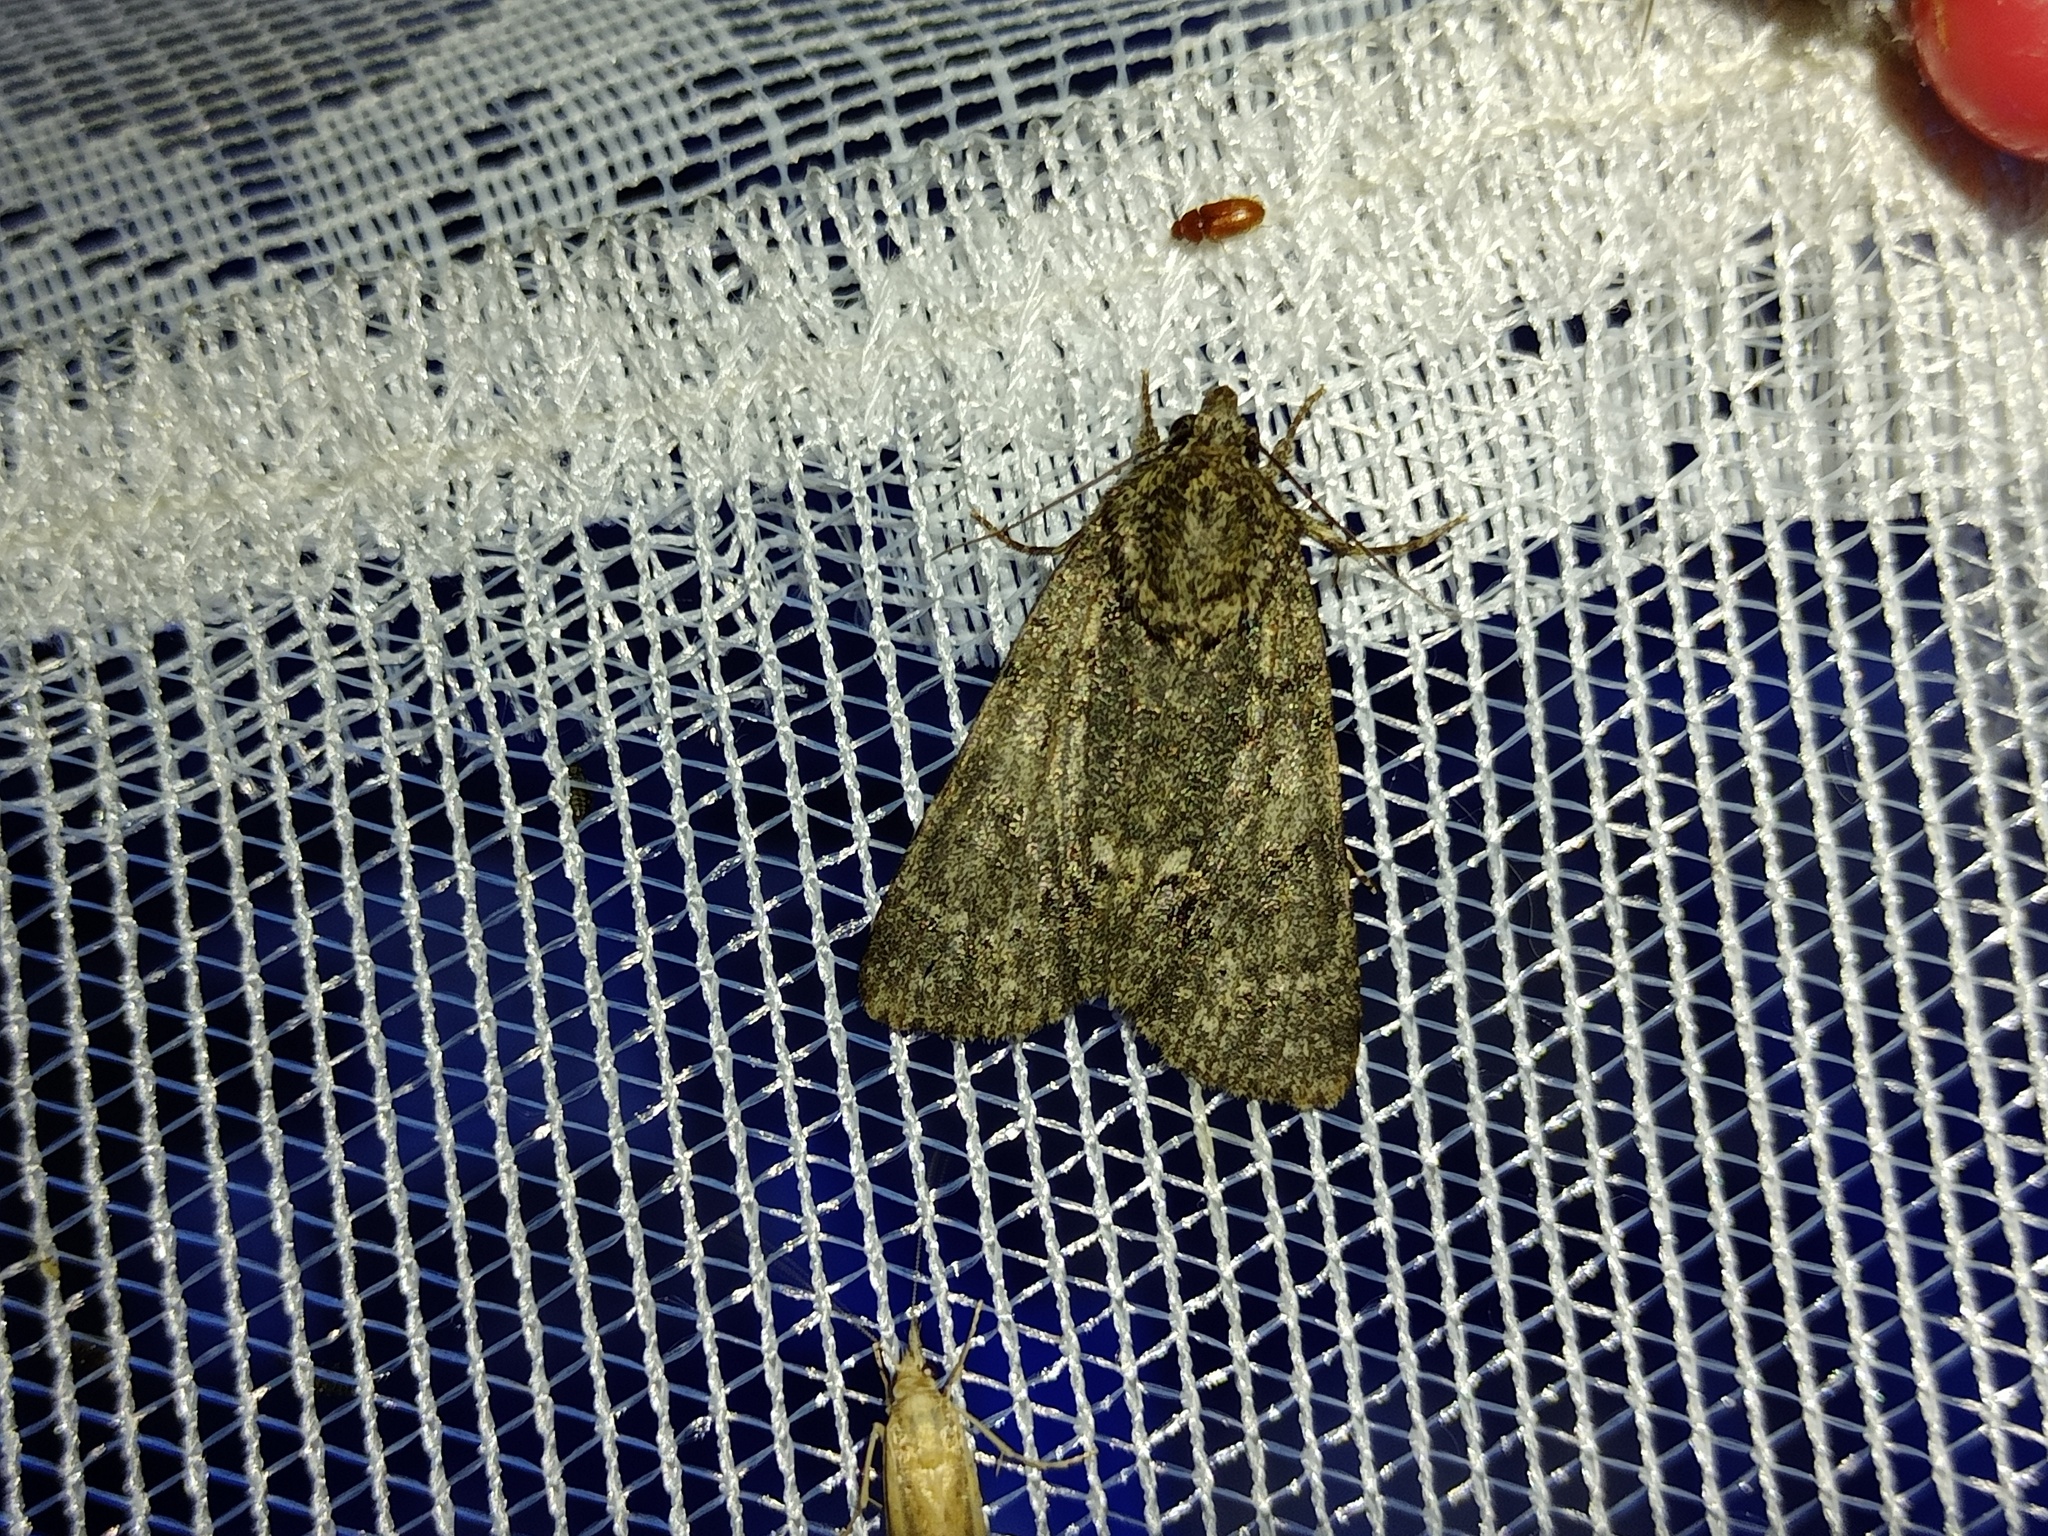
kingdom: Animalia
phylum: Arthropoda
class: Insecta
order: Lepidoptera
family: Noctuidae
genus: Acronicta
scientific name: Acronicta rumicis
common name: Knot grass
